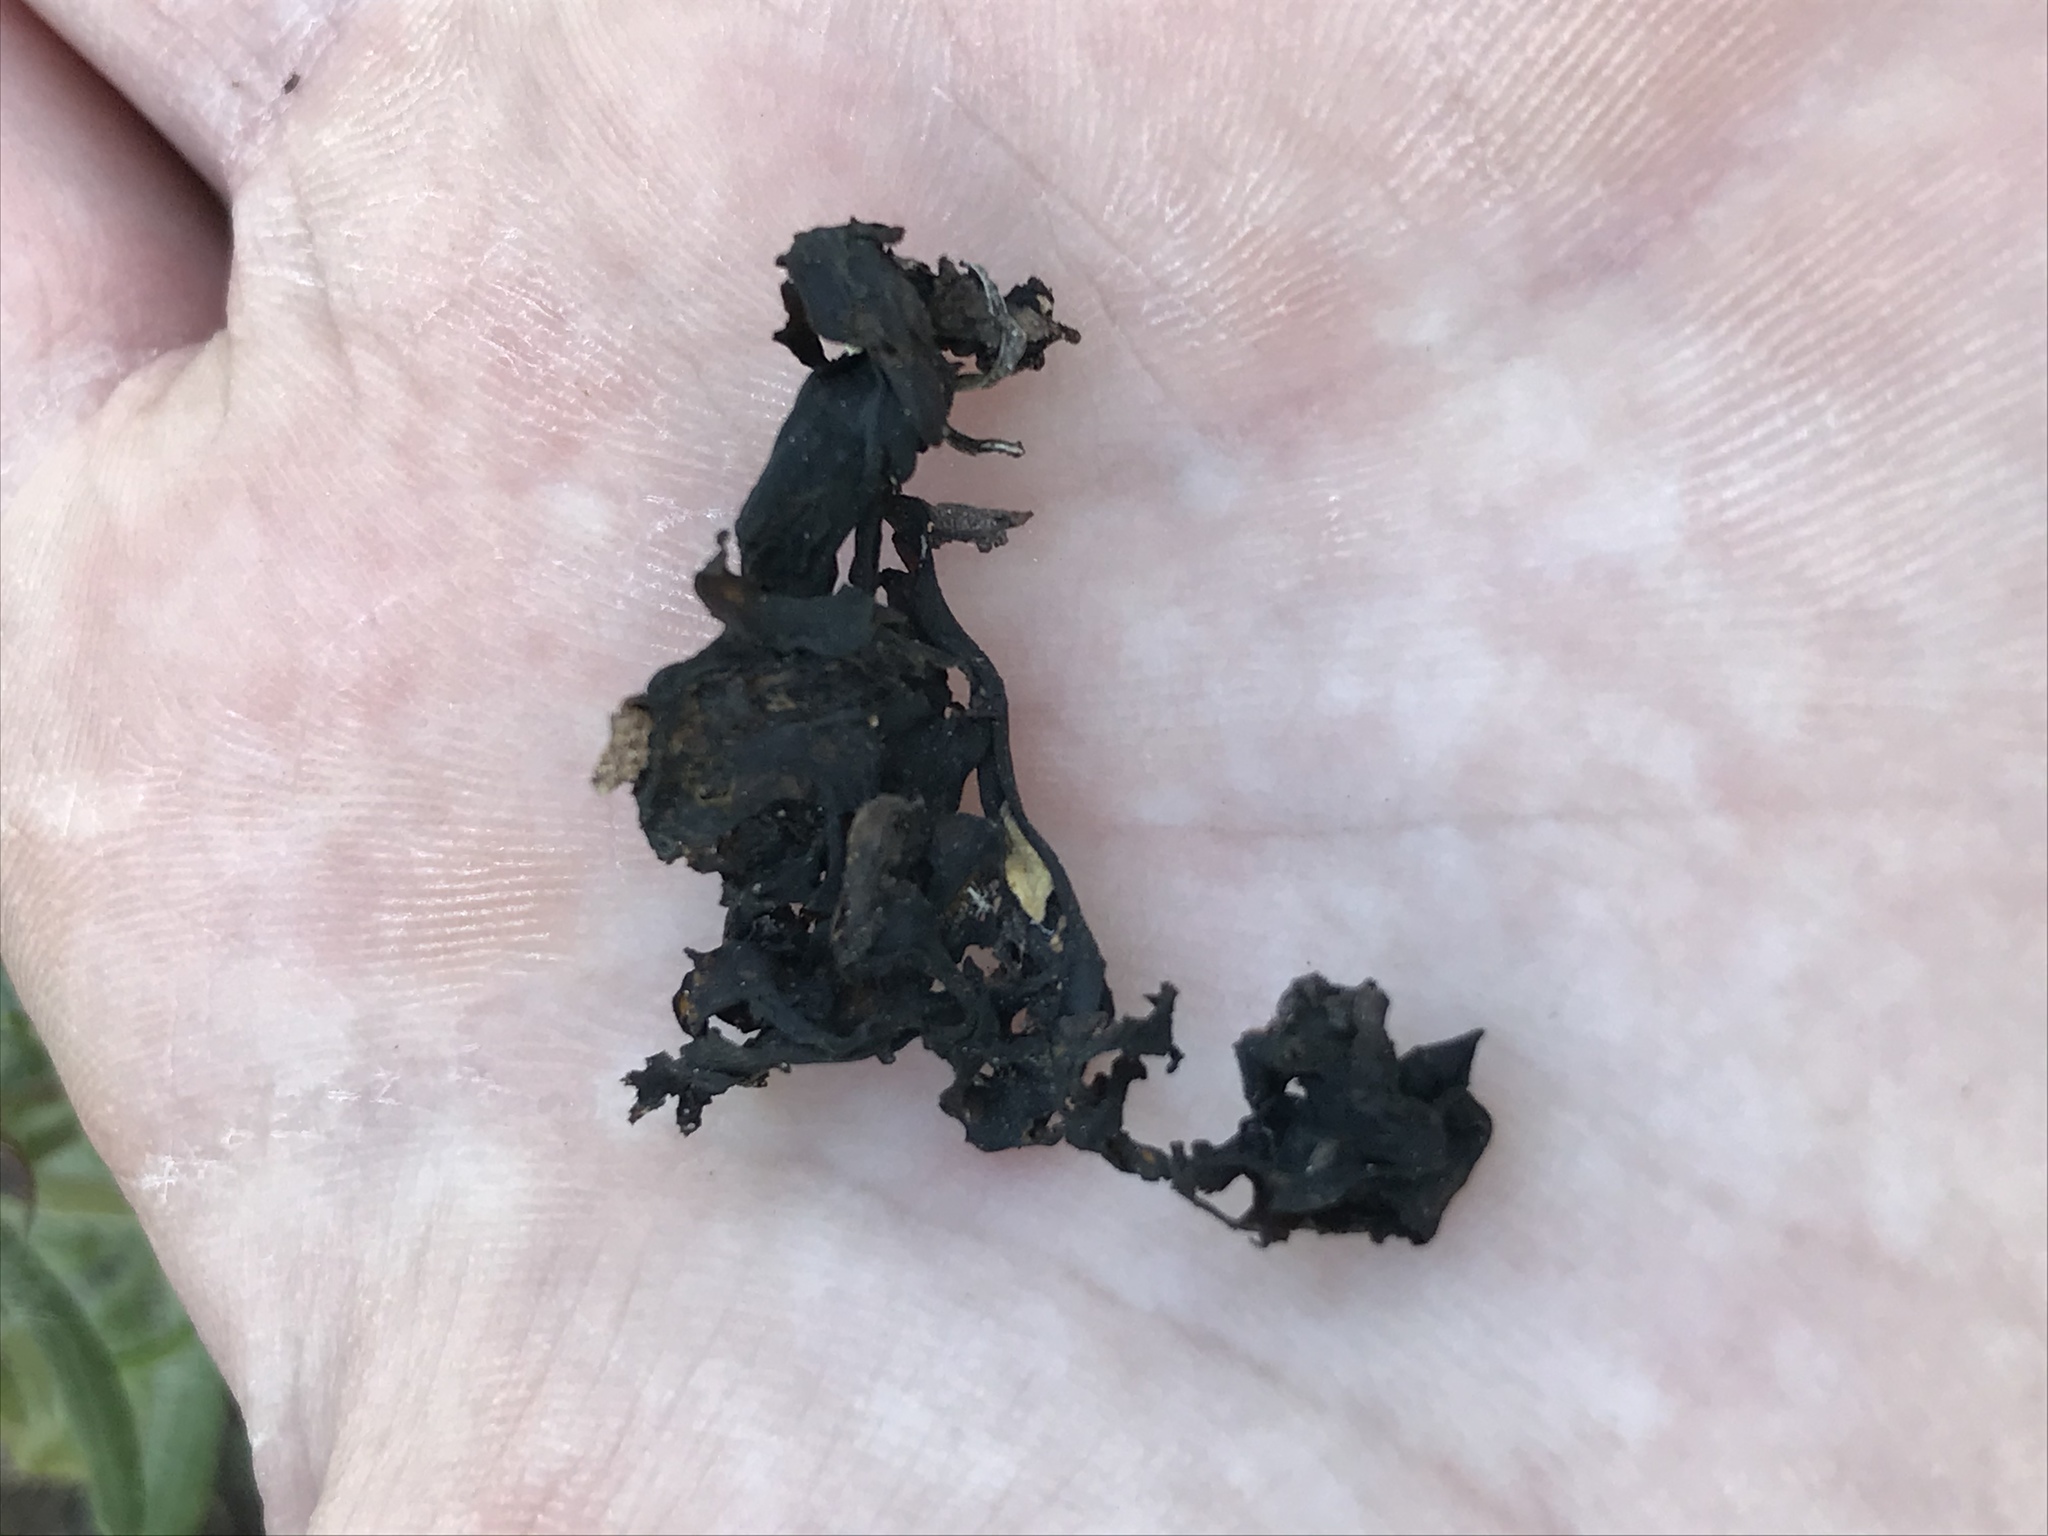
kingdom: Bacteria
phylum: Cyanobacteria
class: Cyanobacteriia
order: Cyanobacteriales
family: Nostocaceae
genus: Nostoc
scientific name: Nostoc commune
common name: Star jelly
